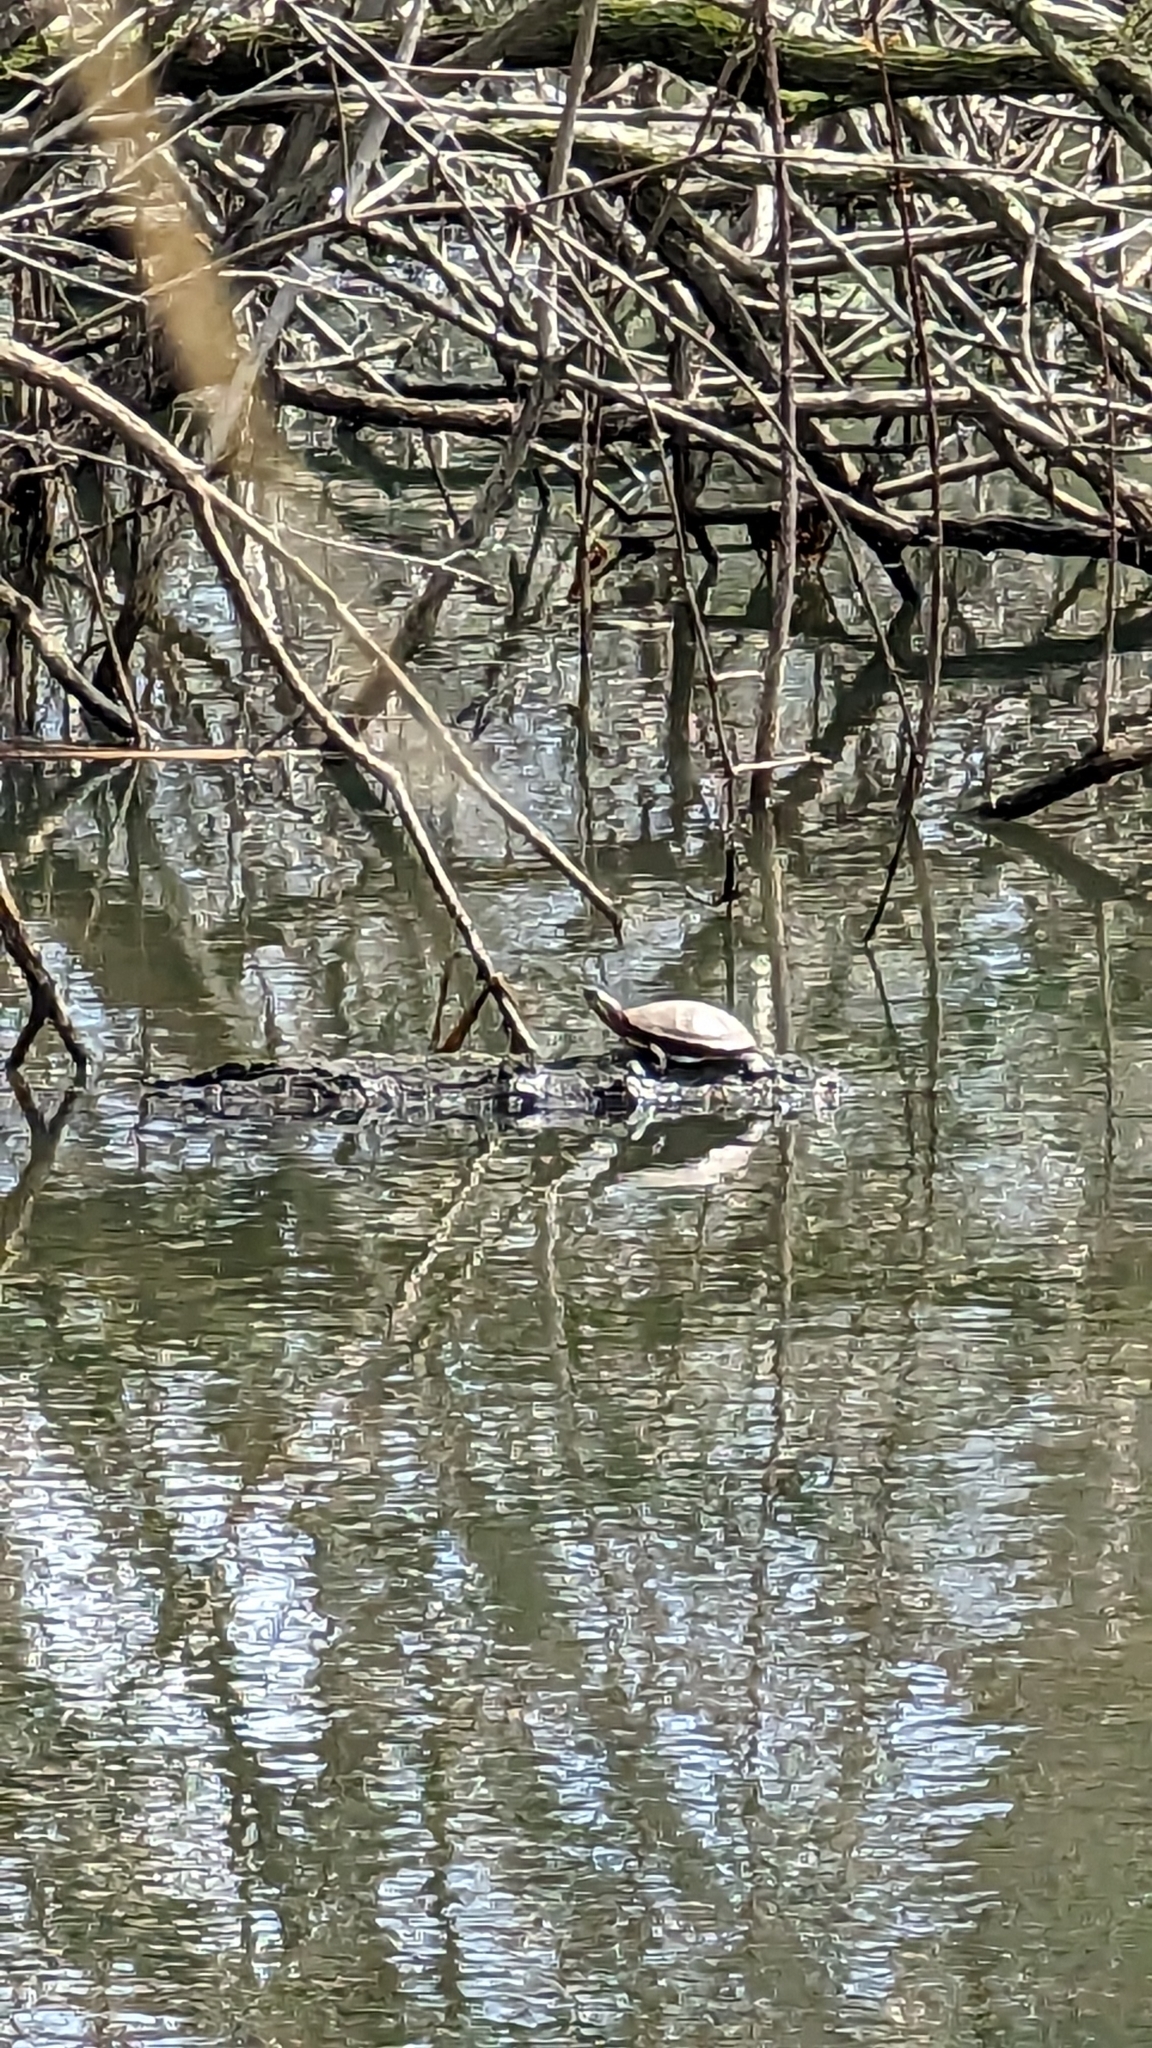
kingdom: Animalia
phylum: Chordata
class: Testudines
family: Emydidae
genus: Chrysemys
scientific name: Chrysemys picta
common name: Painted turtle
